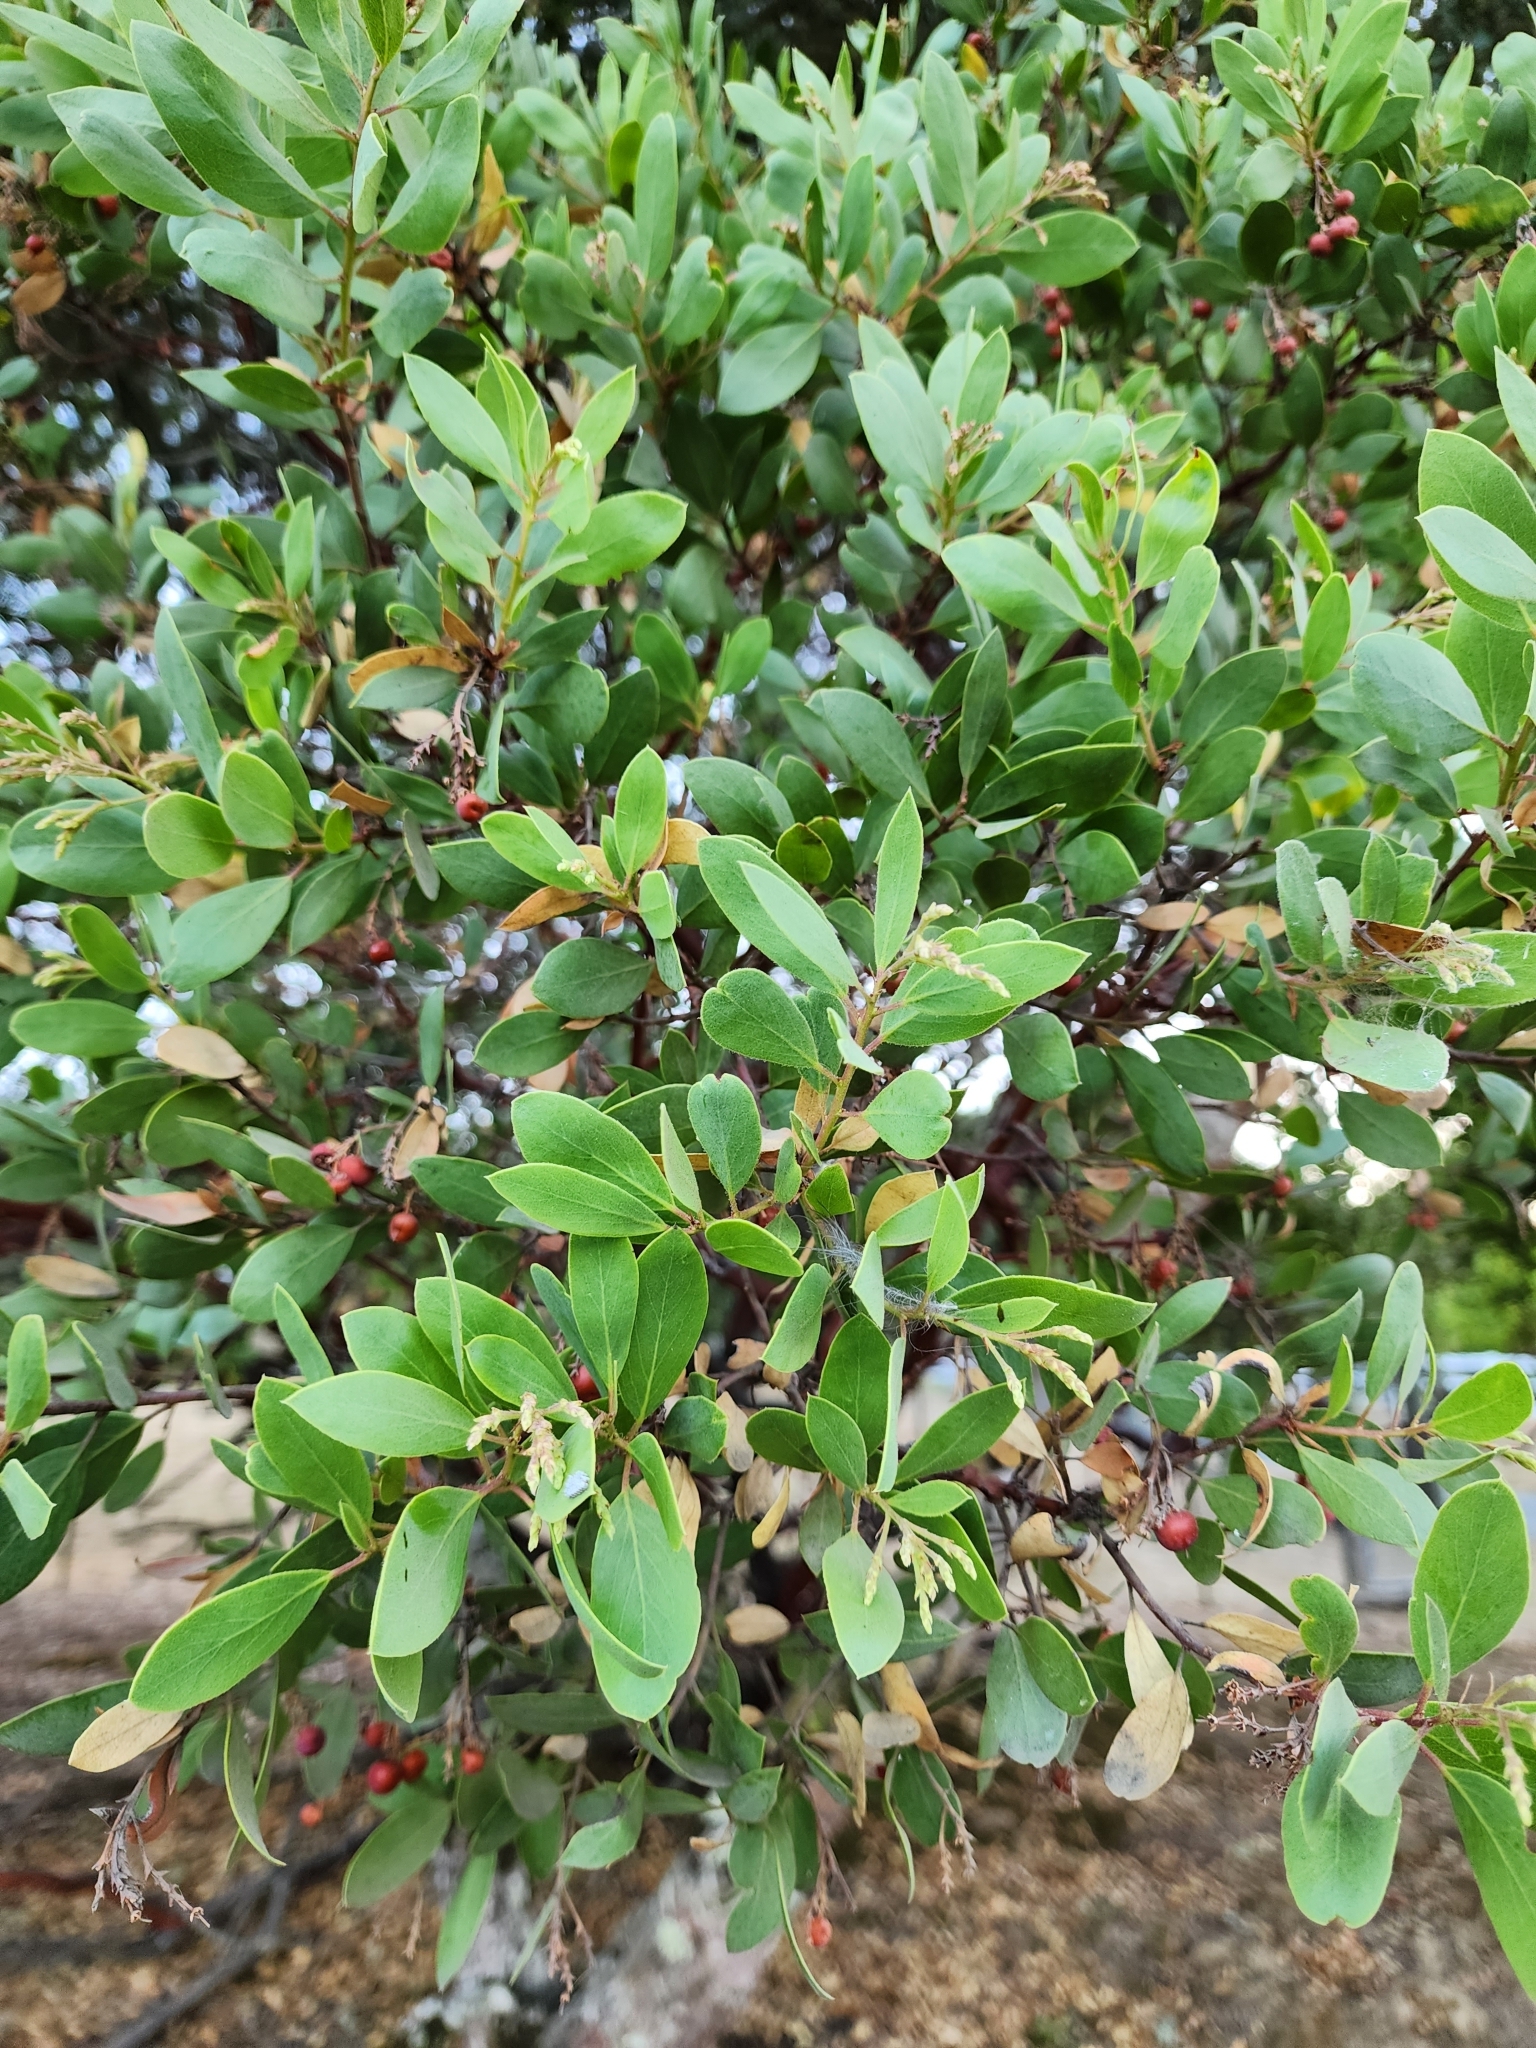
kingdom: Plantae
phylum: Tracheophyta
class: Magnoliopsida
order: Ericales
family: Ericaceae
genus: Arctostaphylos
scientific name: Arctostaphylos manzanita
